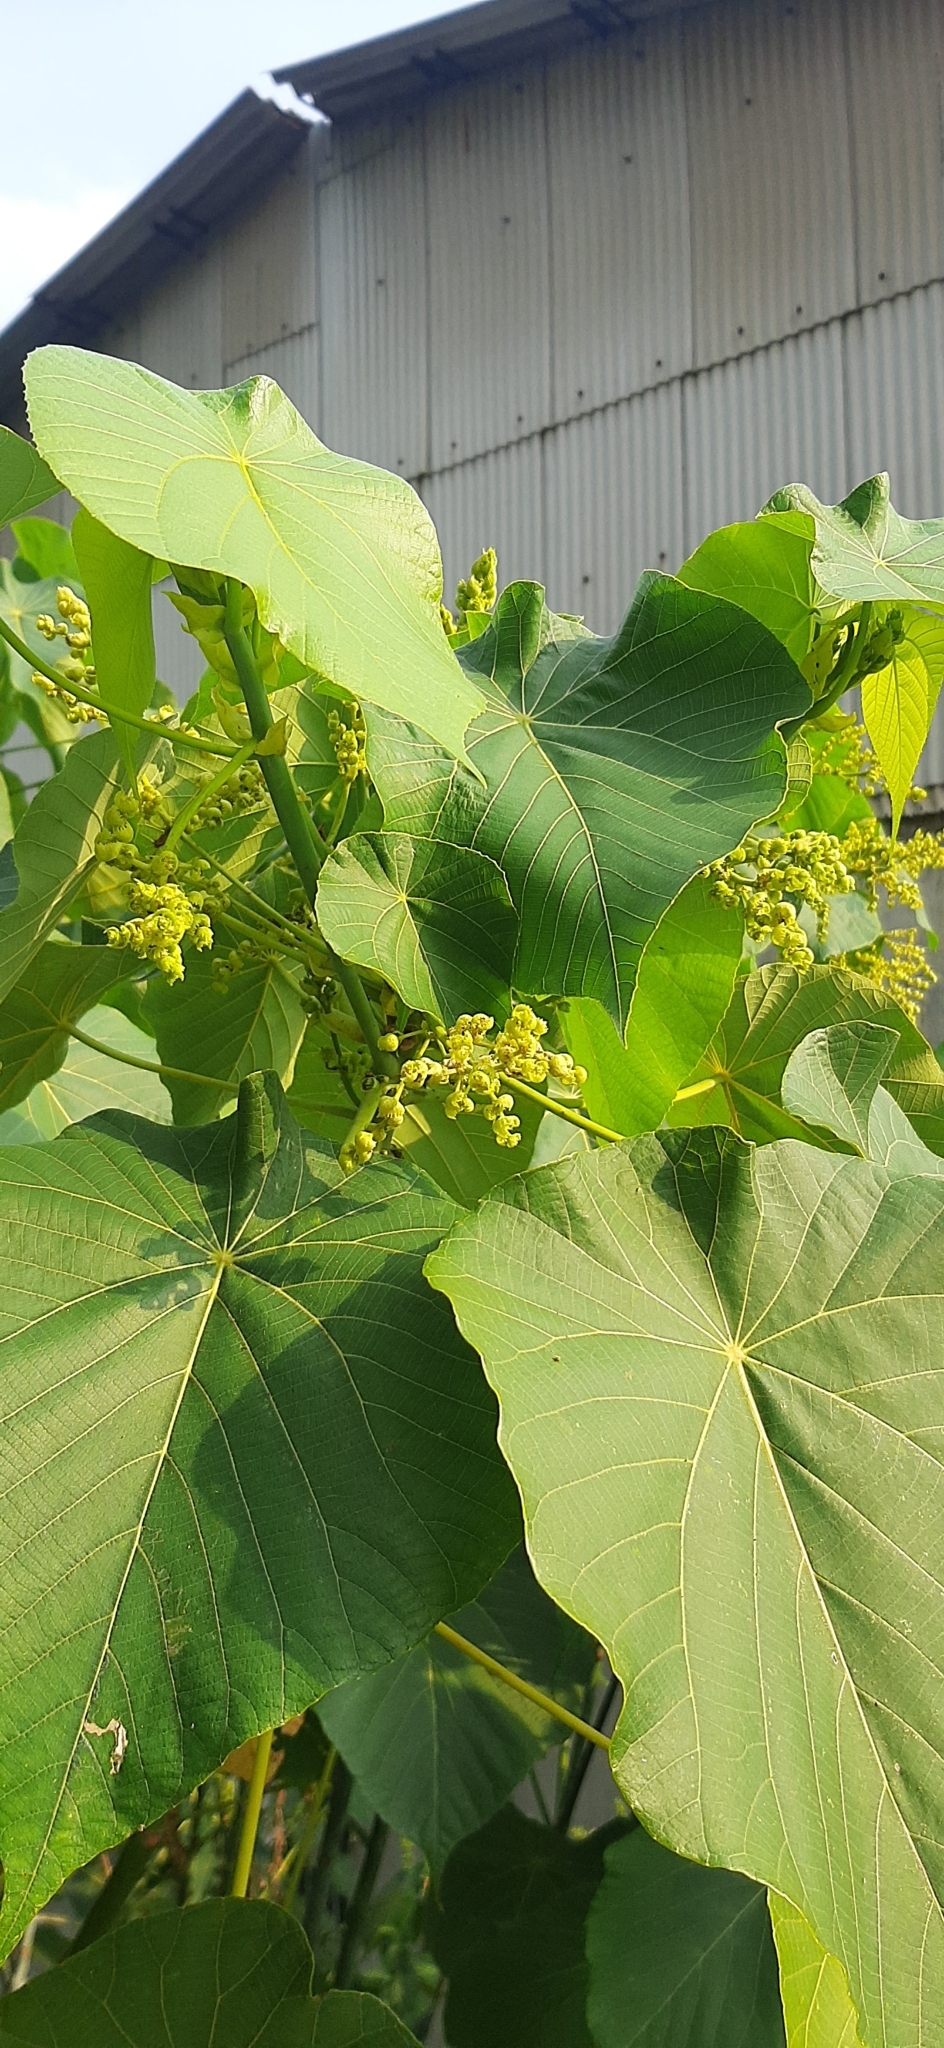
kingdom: Plantae
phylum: Tracheophyta
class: Magnoliopsida
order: Malpighiales
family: Euphorbiaceae
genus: Macaranga
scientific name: Macaranga tanarius
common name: Parasol leaf tree
